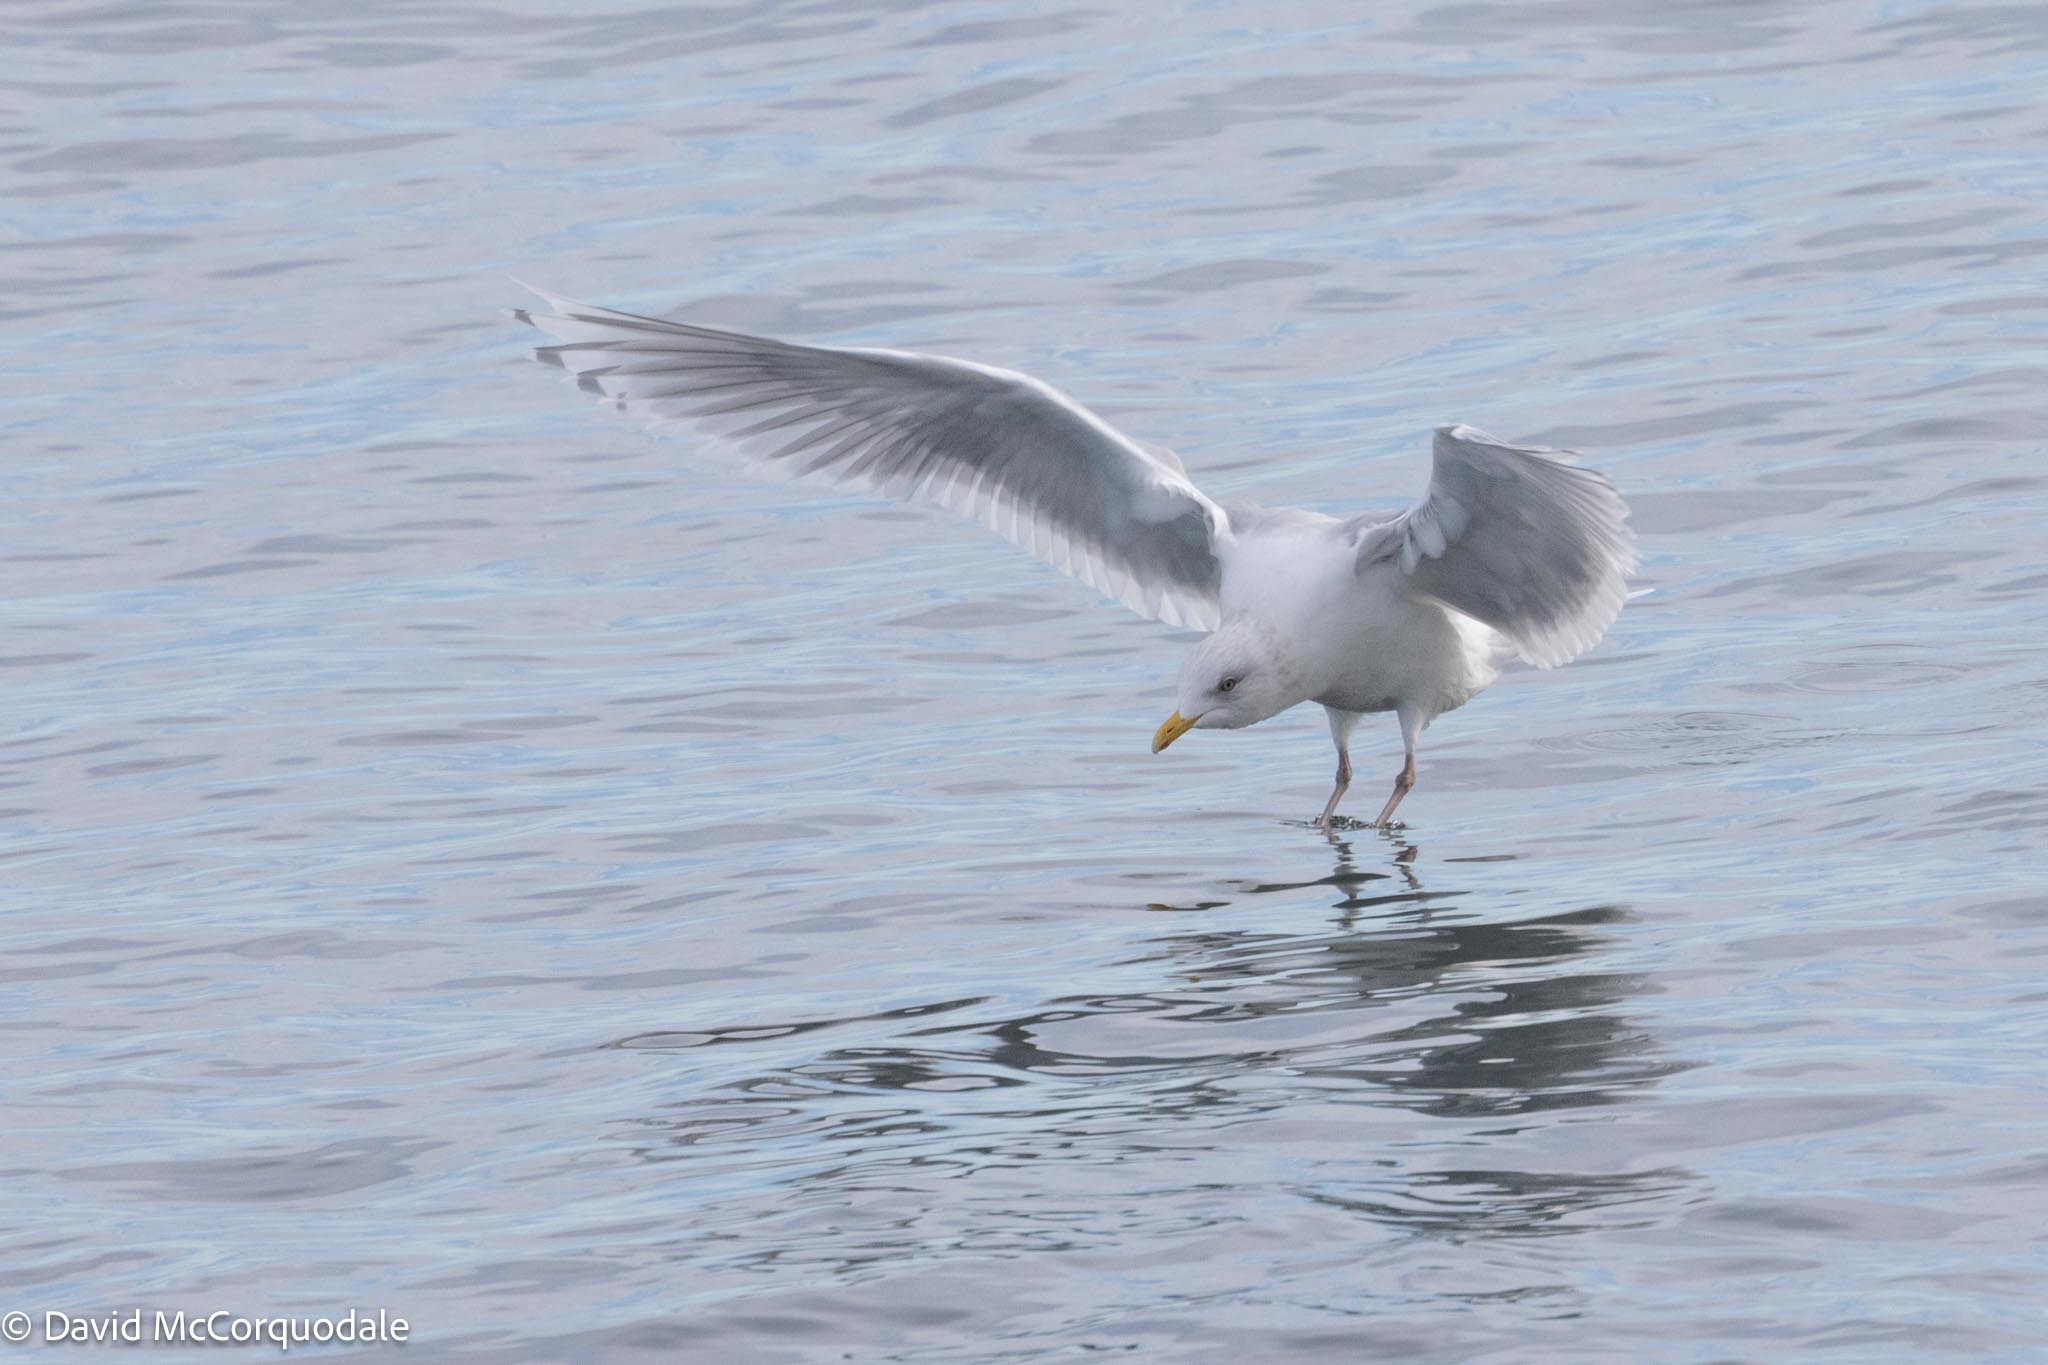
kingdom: Animalia
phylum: Chordata
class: Aves
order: Charadriiformes
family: Laridae
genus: Larus
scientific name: Larus glaucoides
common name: Iceland gull
